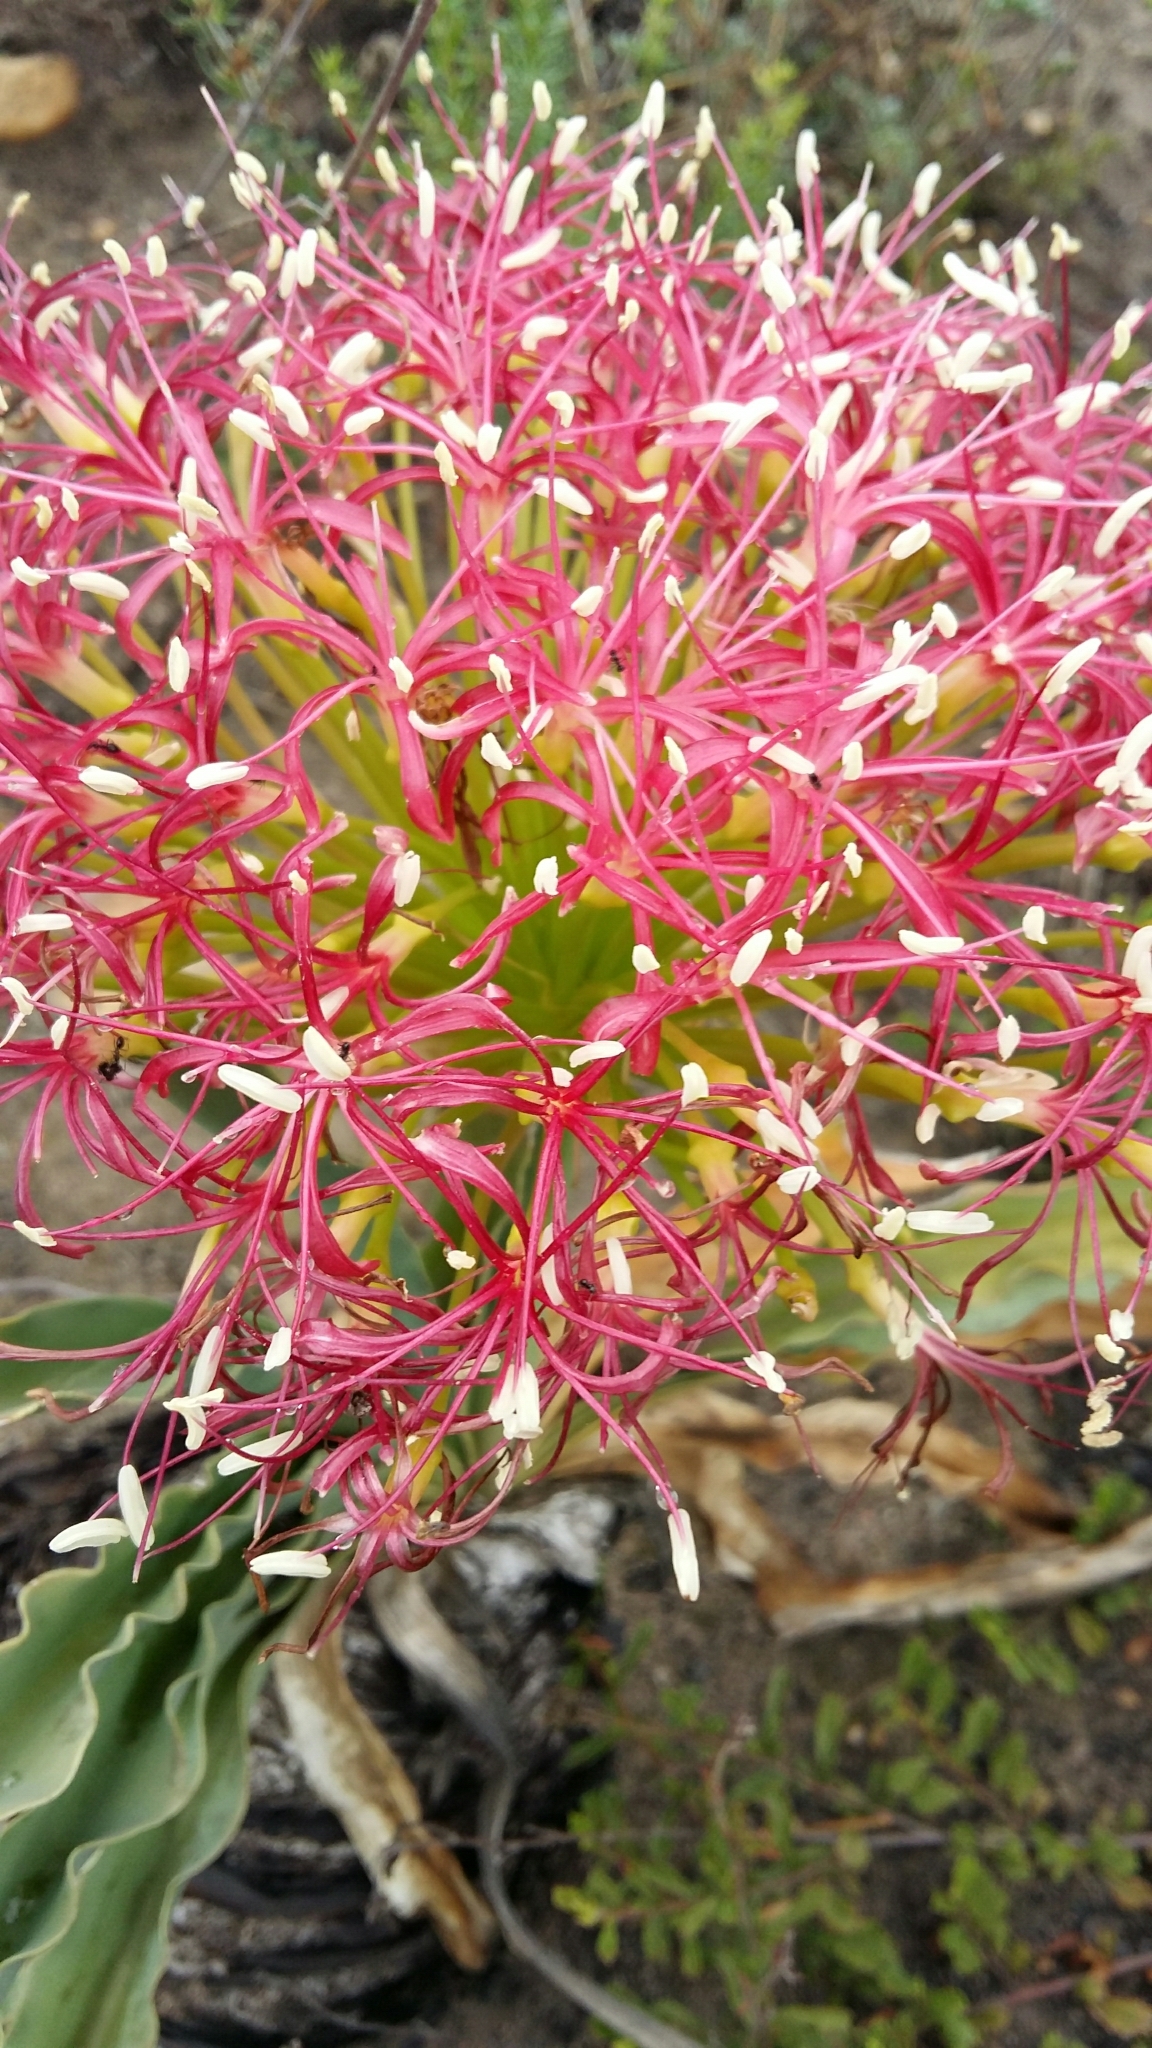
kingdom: Plantae
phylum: Tracheophyta
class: Liliopsida
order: Asparagales
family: Amaryllidaceae
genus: Boophone
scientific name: Boophone disticha
